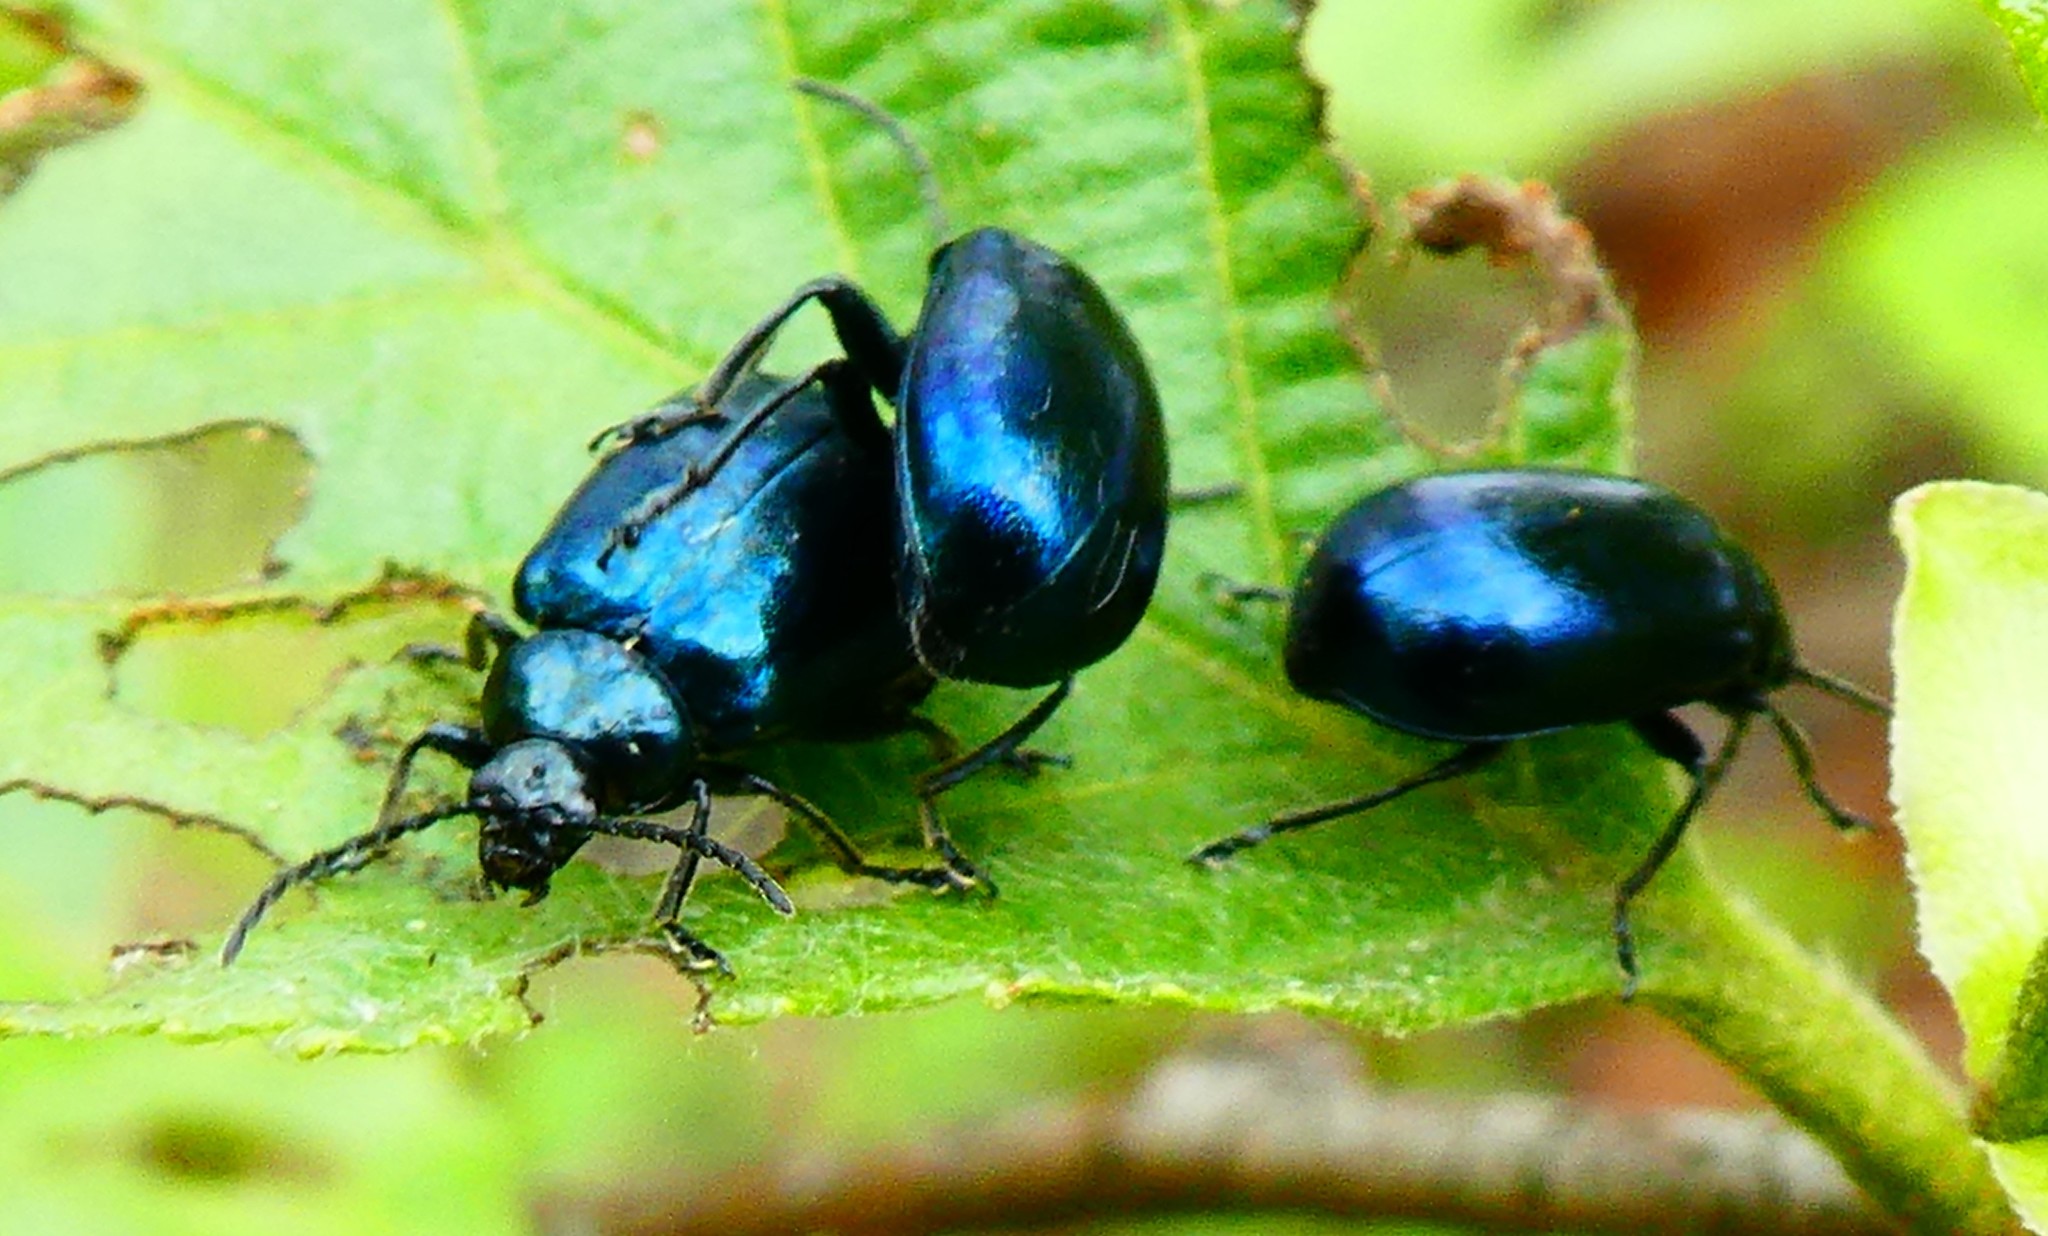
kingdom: Animalia
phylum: Arthropoda
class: Insecta
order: Coleoptera
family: Chrysomelidae
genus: Agelastica
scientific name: Agelastica alni
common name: Alder leaf beetle
